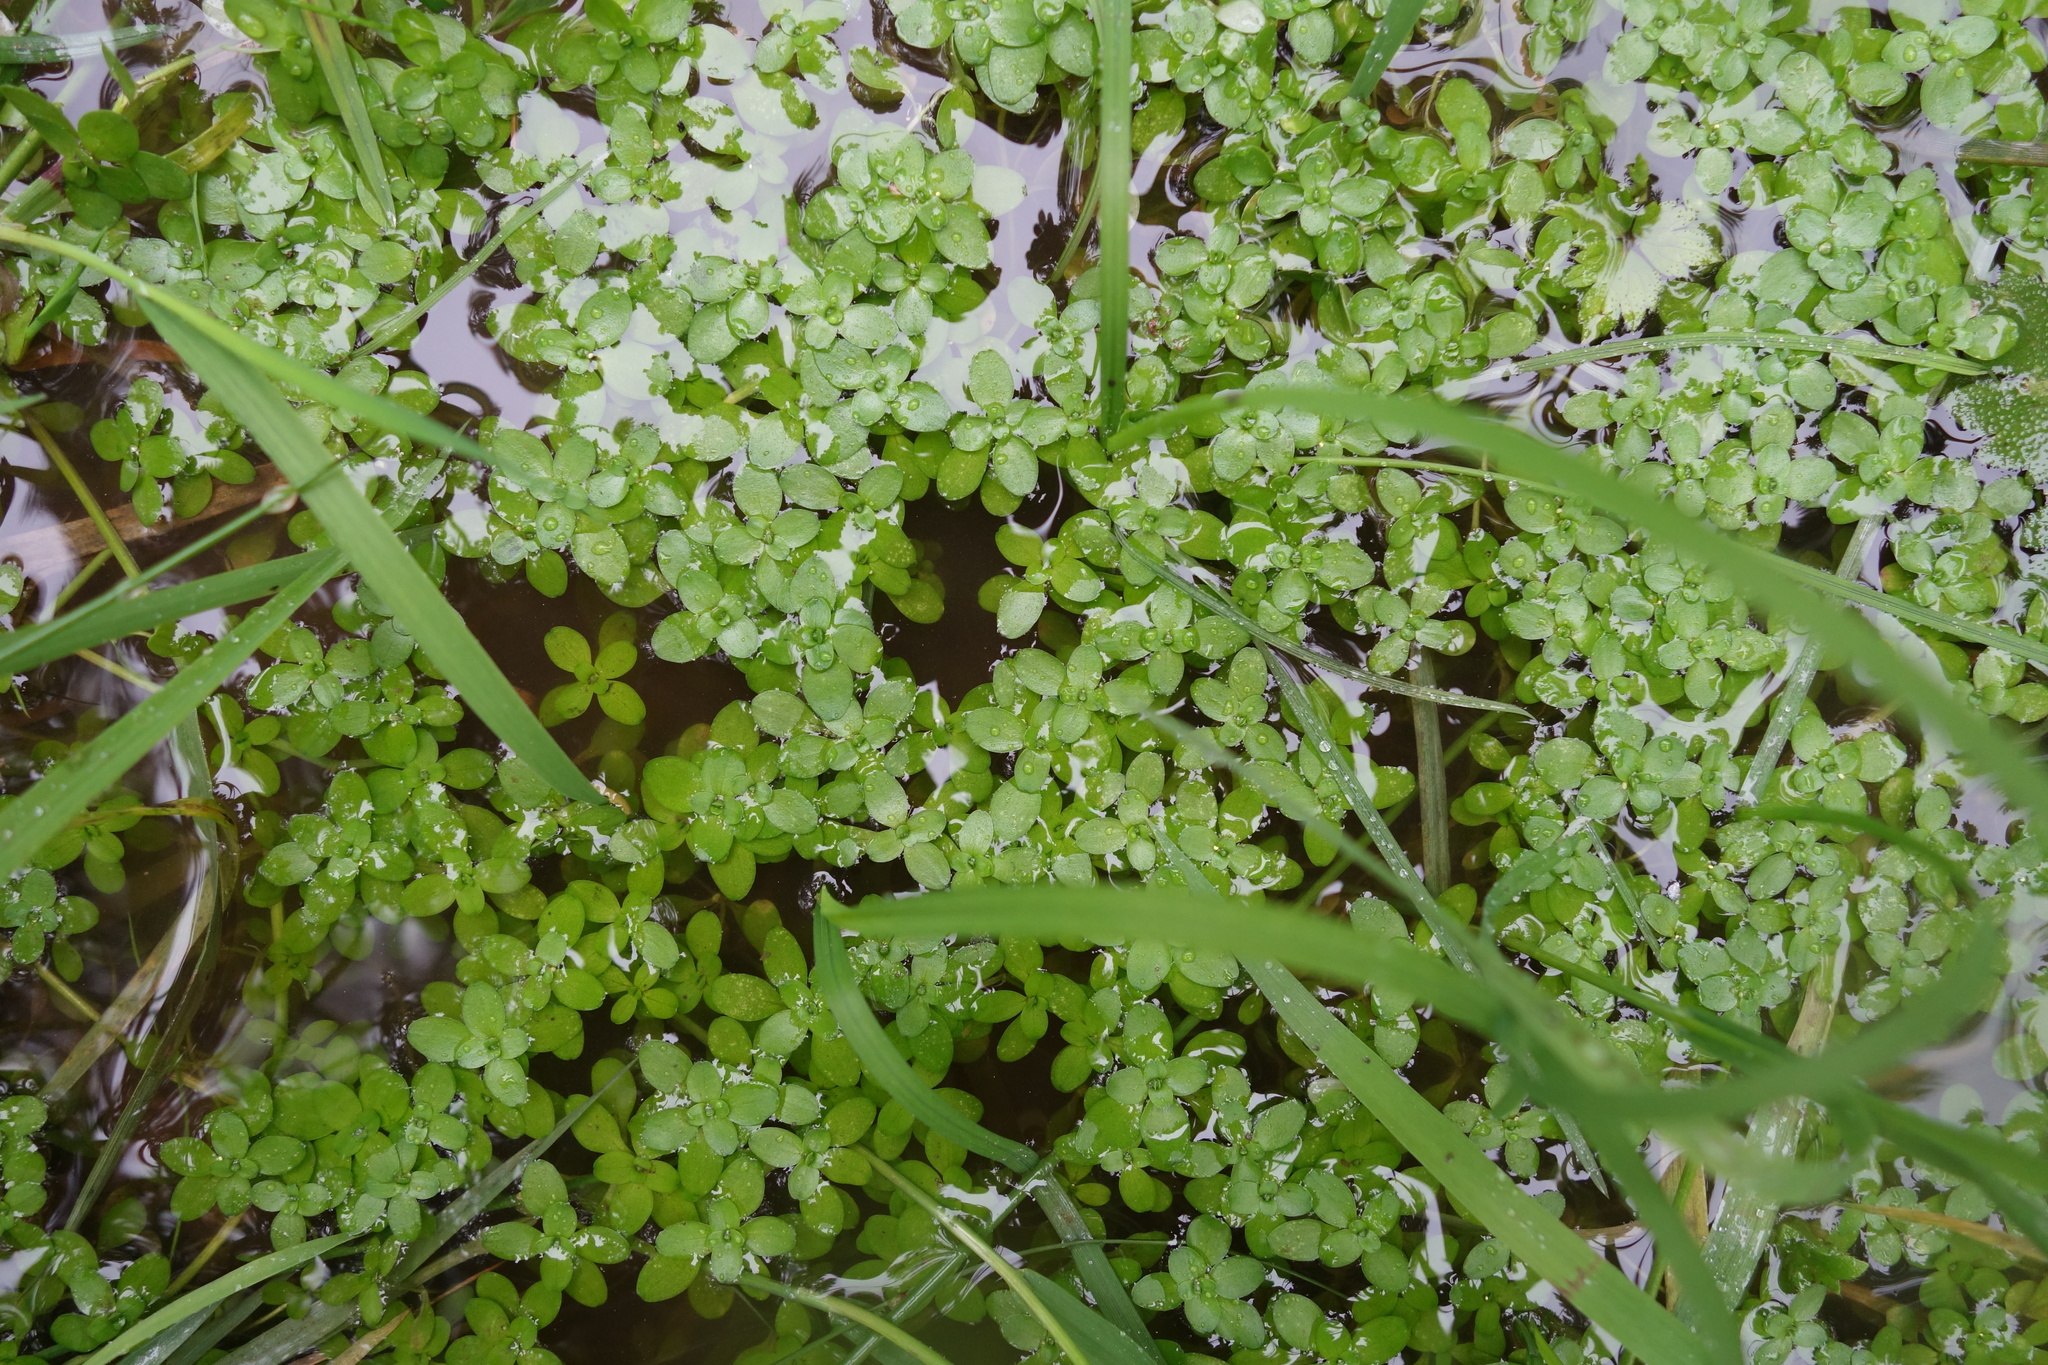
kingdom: Plantae
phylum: Tracheophyta
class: Liliopsida
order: Alismatales
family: Araceae
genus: Lemna
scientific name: Lemna minor
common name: Common duckweed
